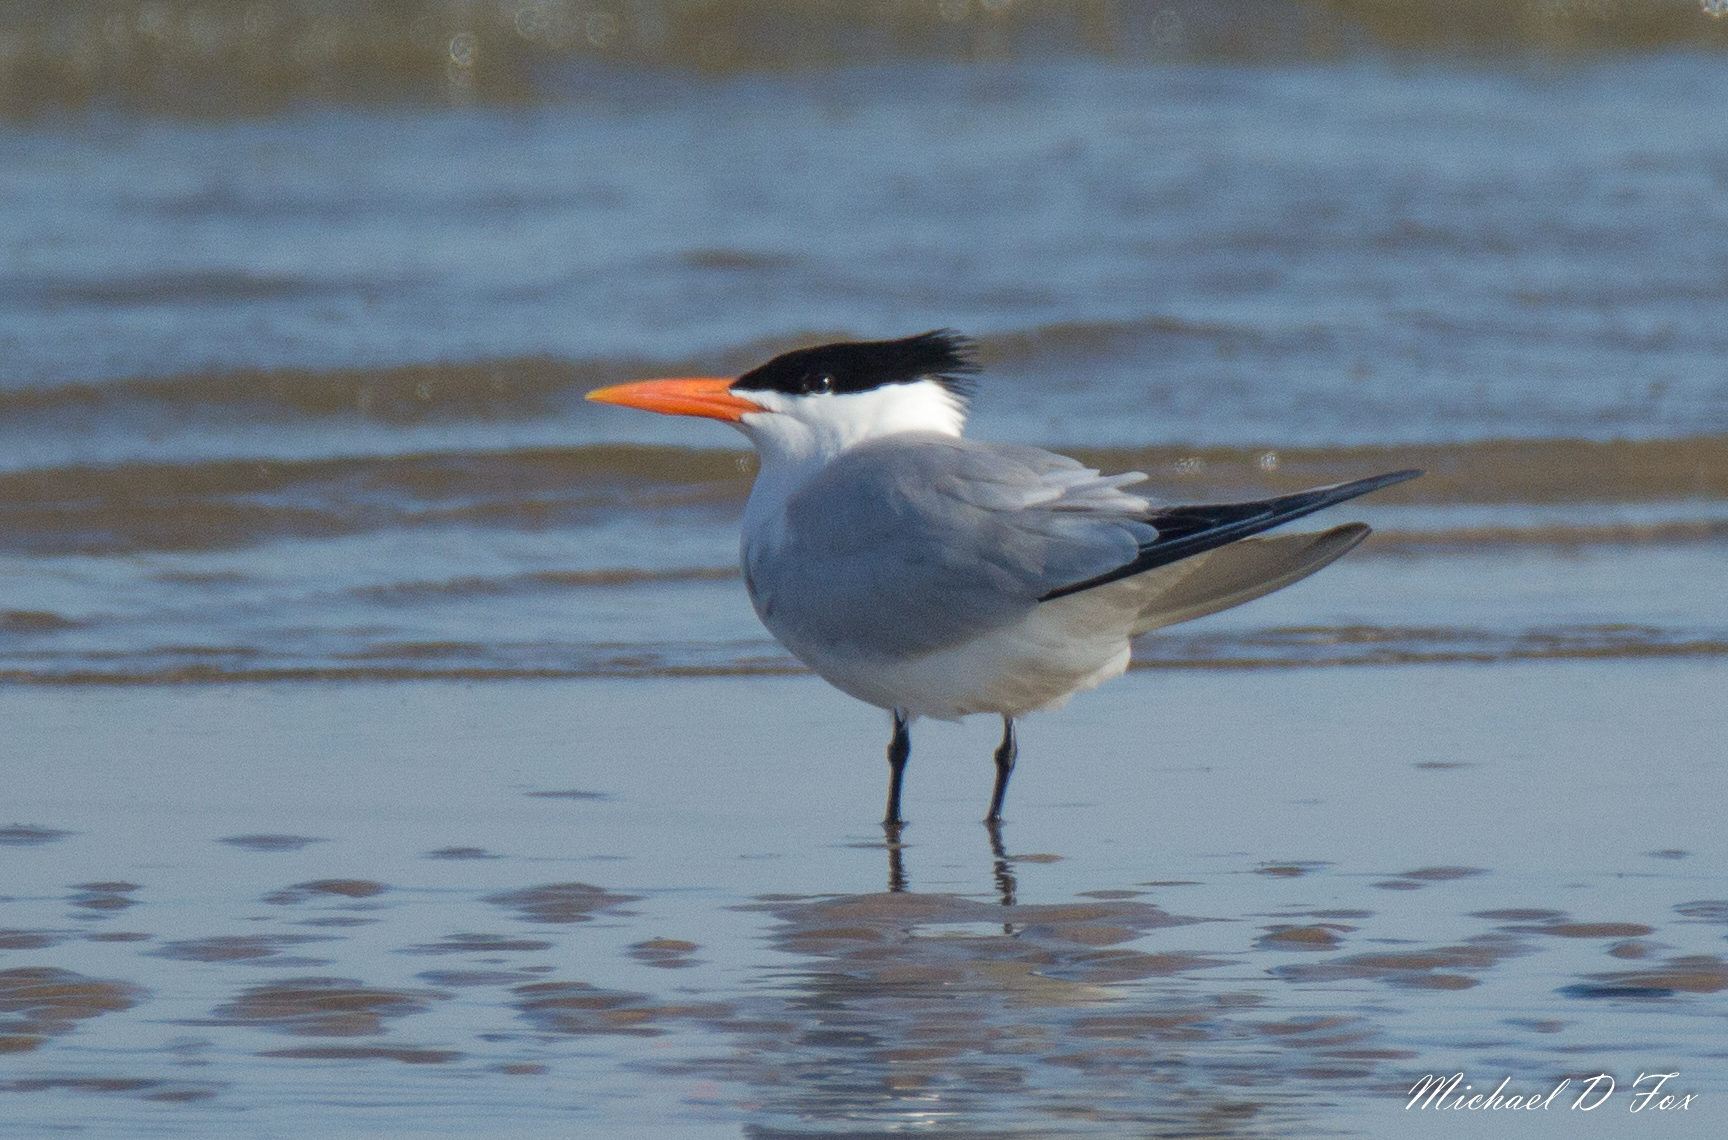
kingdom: Animalia
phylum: Chordata
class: Aves
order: Charadriiformes
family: Laridae
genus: Thalasseus
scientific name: Thalasseus maximus
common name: Royal tern
